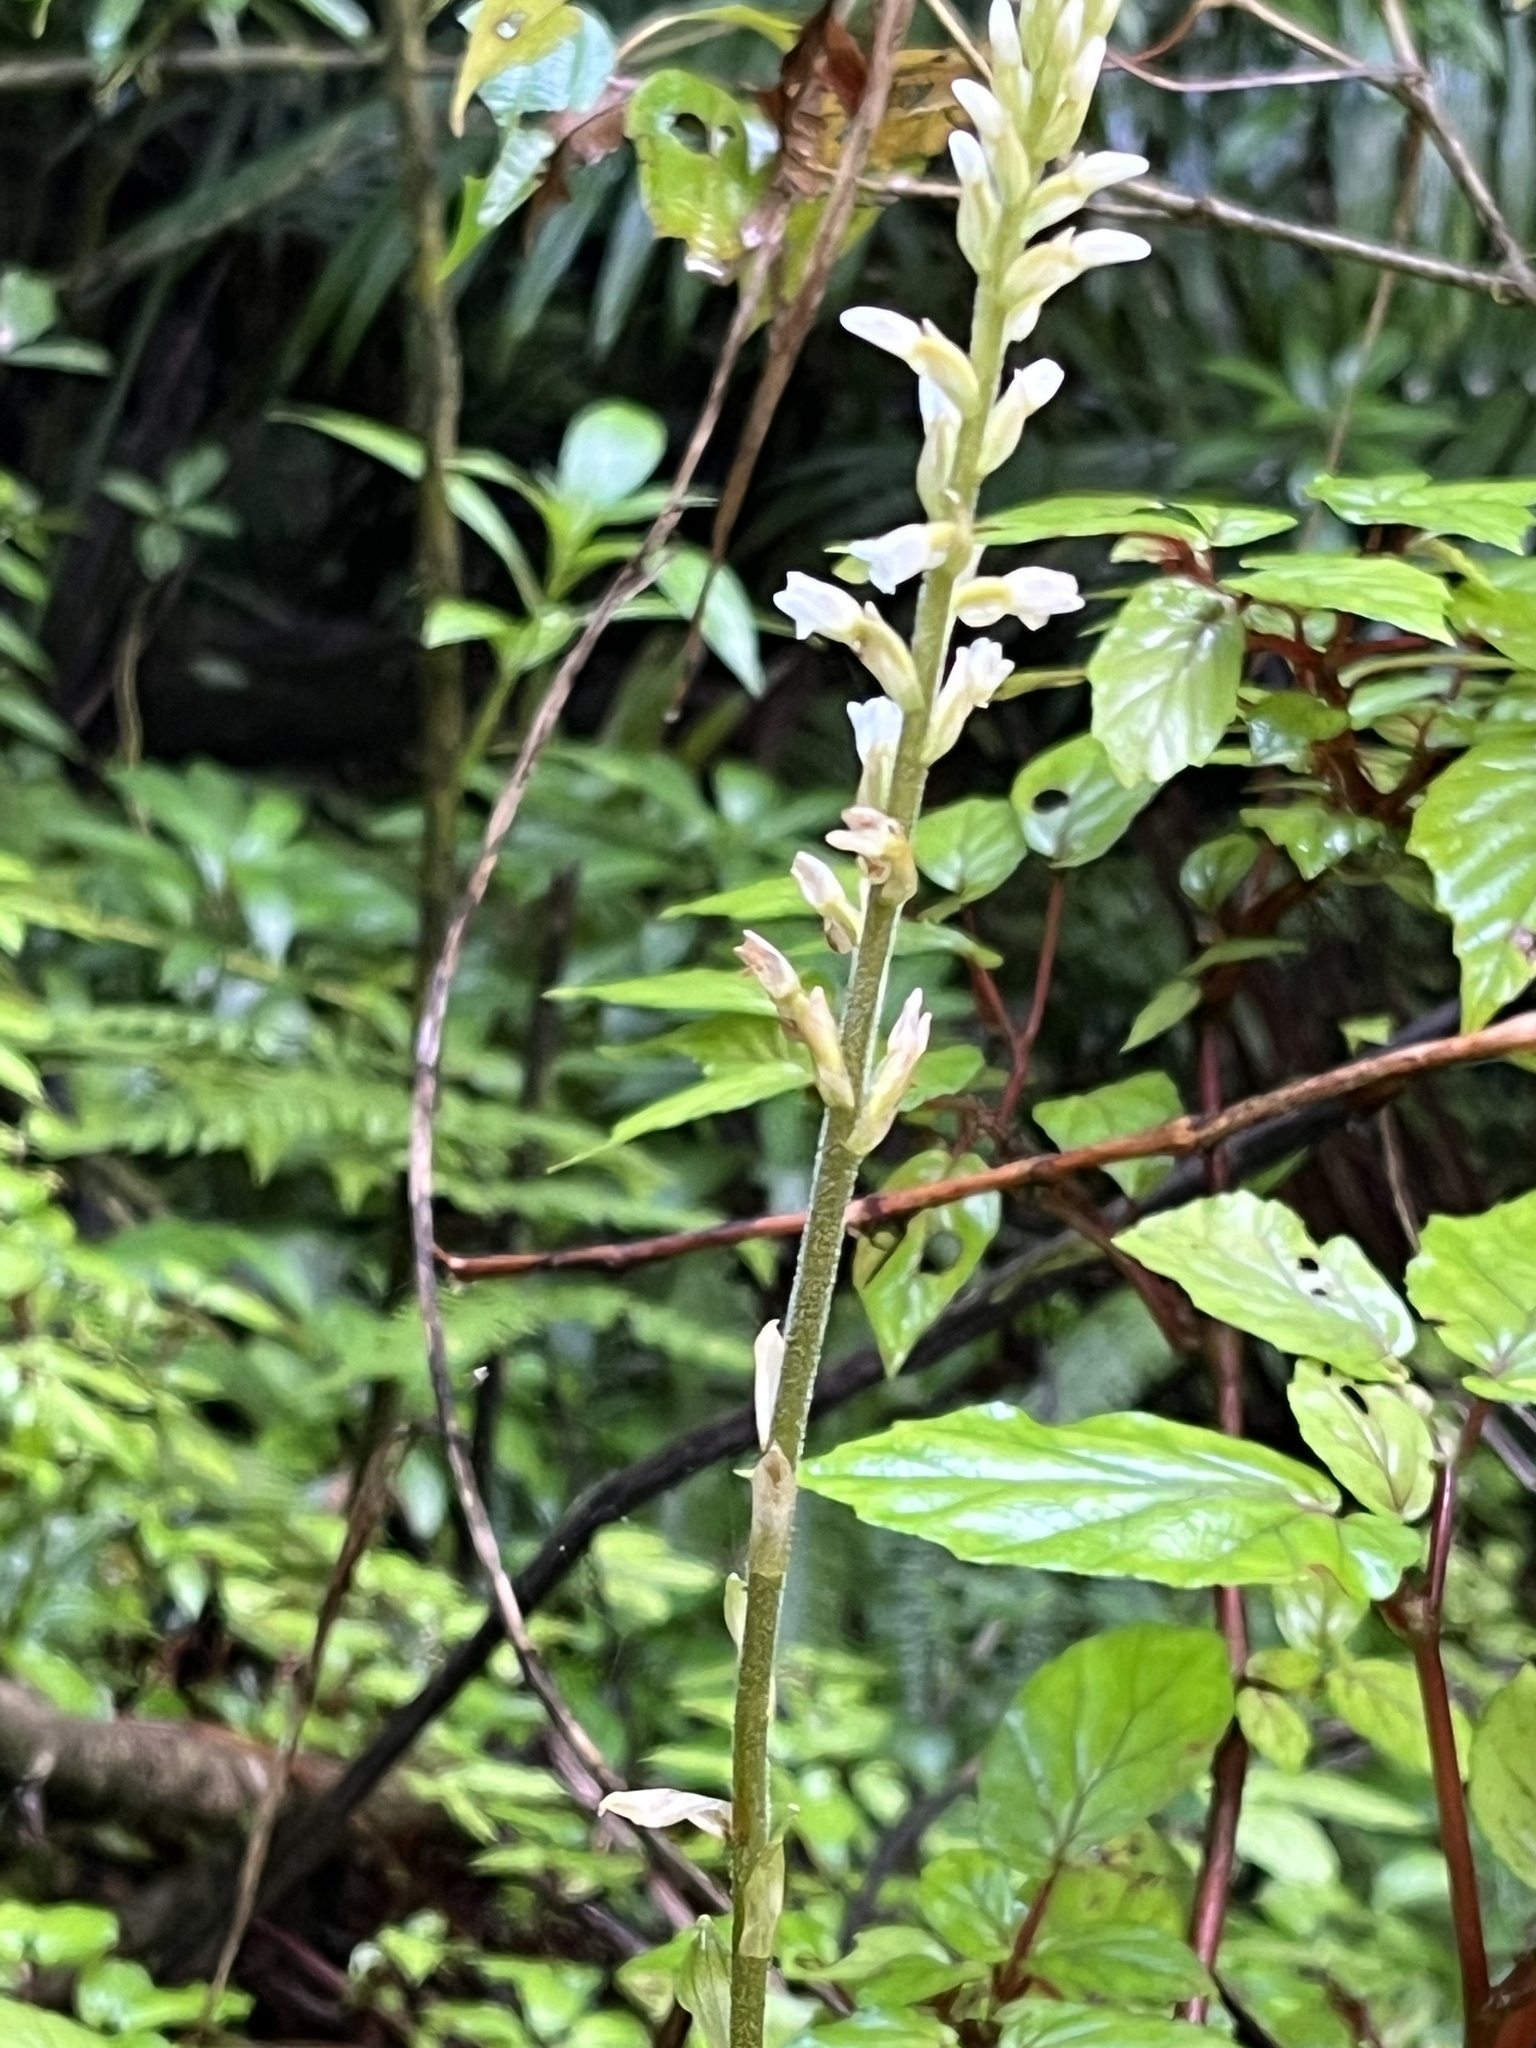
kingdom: Plantae
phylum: Tracheophyta
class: Liliopsida
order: Asparagales
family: Orchidaceae
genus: Microchilus
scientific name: Microchilus plantagineus
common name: Caribbean false helmetorchid
